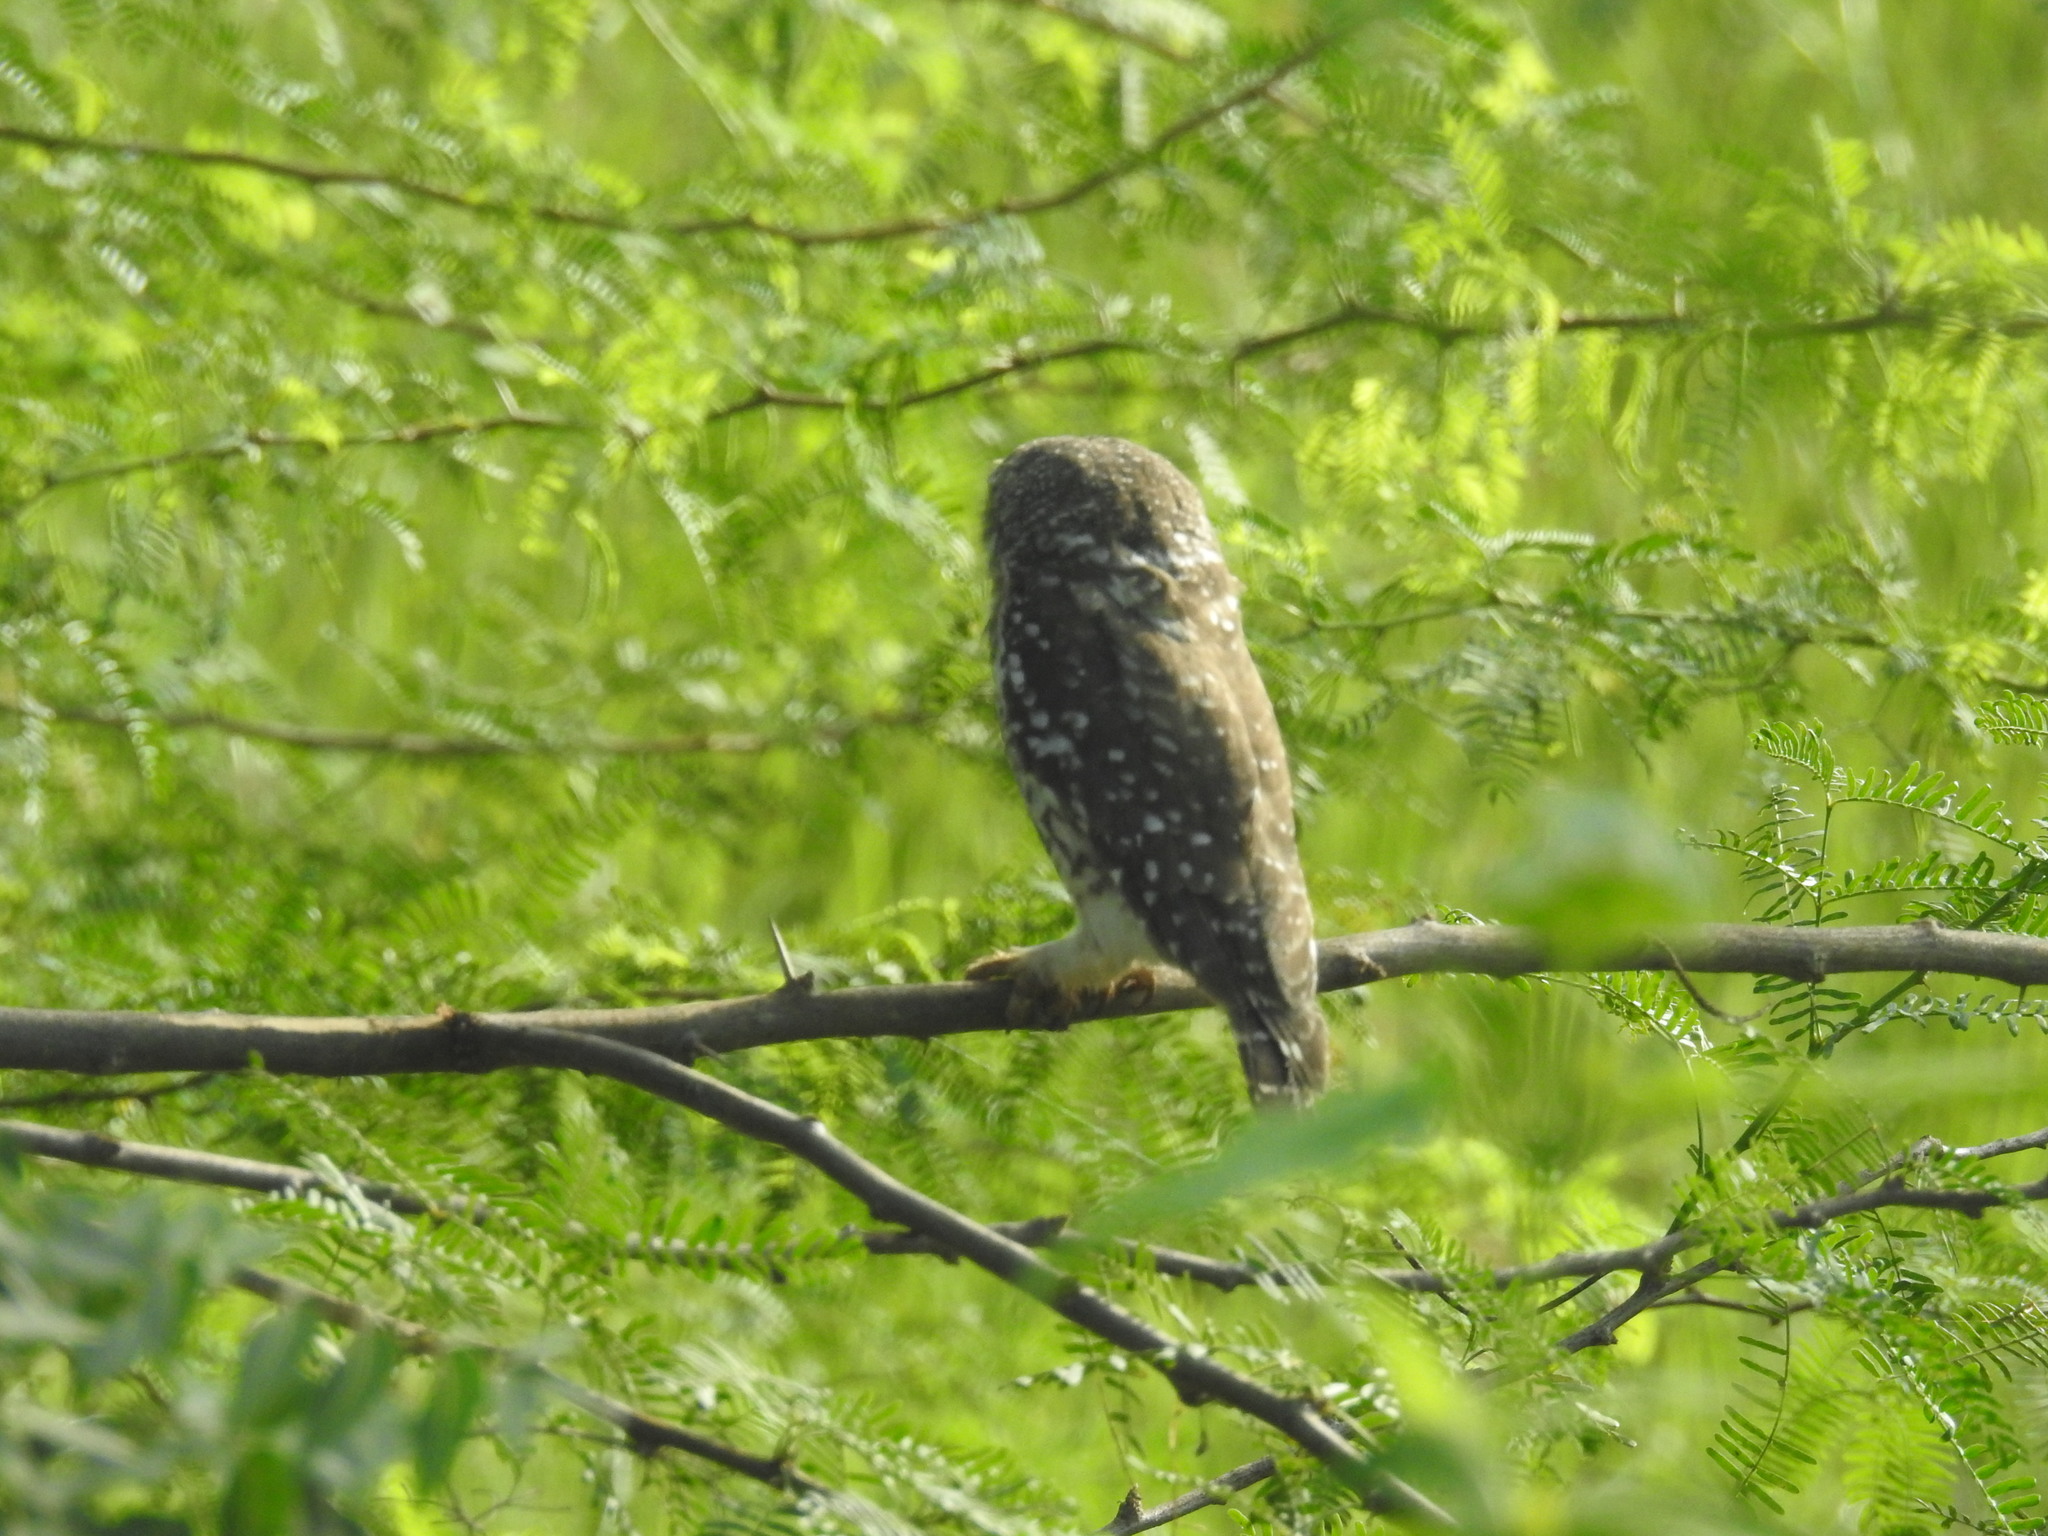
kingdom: Animalia
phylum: Chordata
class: Aves
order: Strigiformes
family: Strigidae
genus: Athene
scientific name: Athene brama
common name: Spotted owlet
